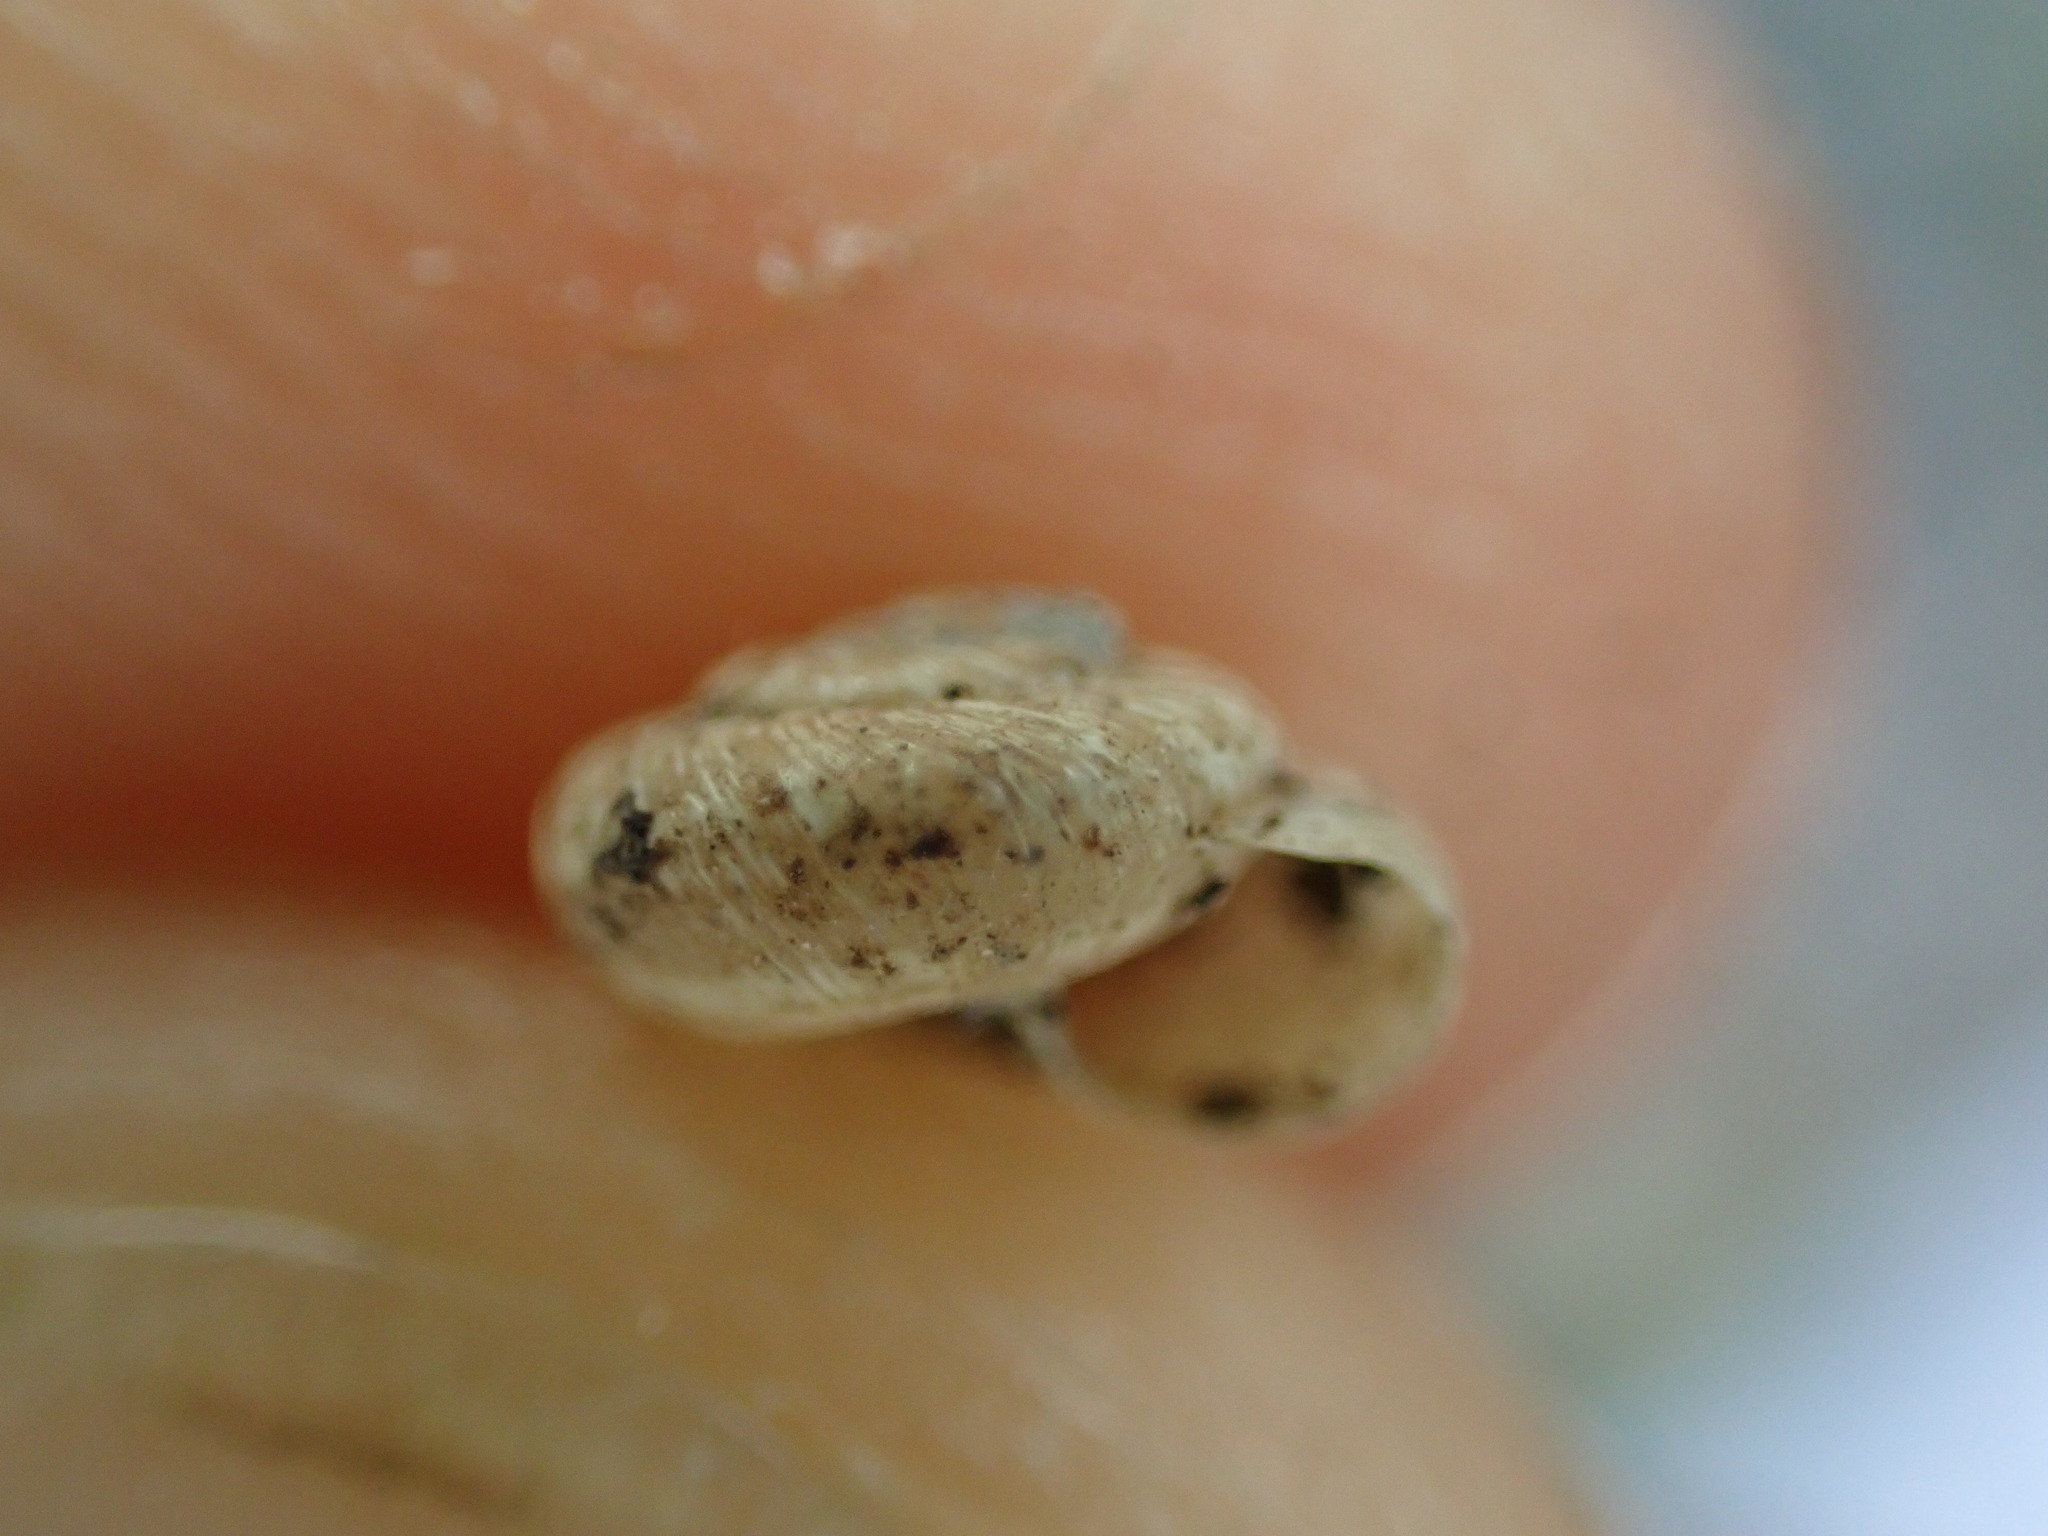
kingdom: Animalia
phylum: Mollusca
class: Gastropoda
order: Stylommatophora
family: Geomitridae
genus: Xerotricha
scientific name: Xerotricha conspurcata
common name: Snail
